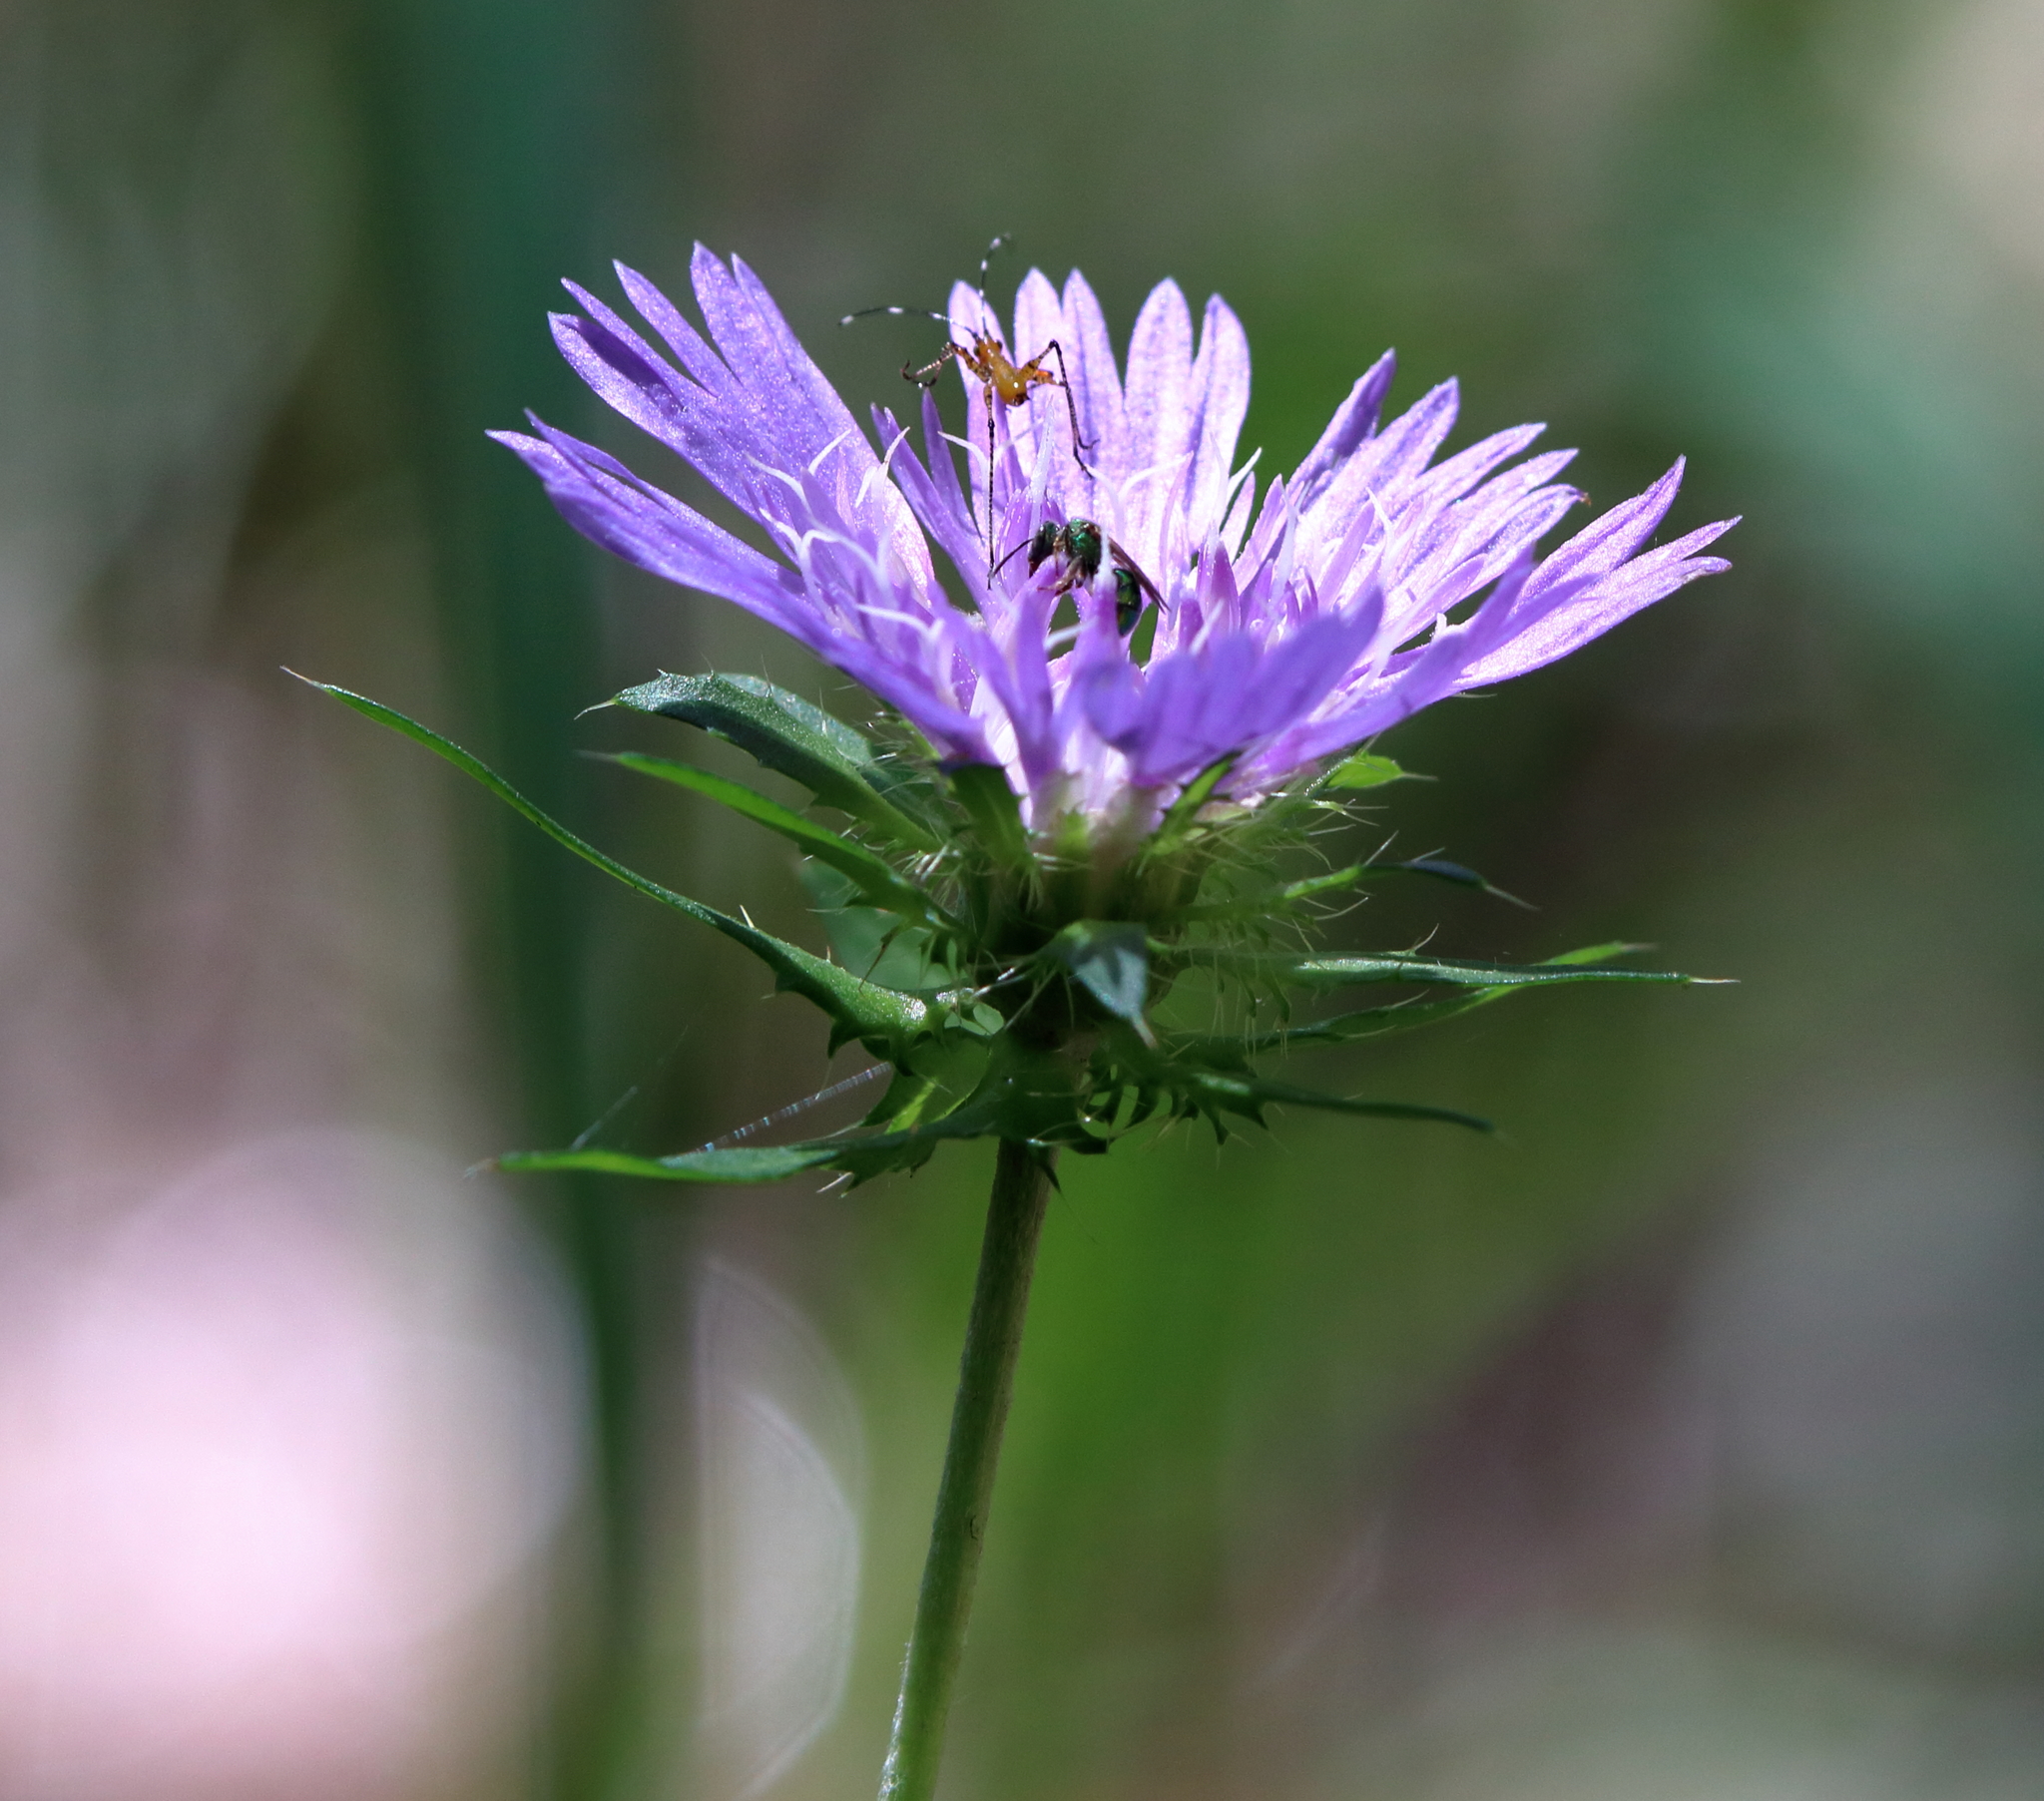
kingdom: Plantae
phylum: Tracheophyta
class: Magnoliopsida
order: Asterales
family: Asteraceae
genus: Stokesia
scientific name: Stokesia laevis
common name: Stokes'-aster
